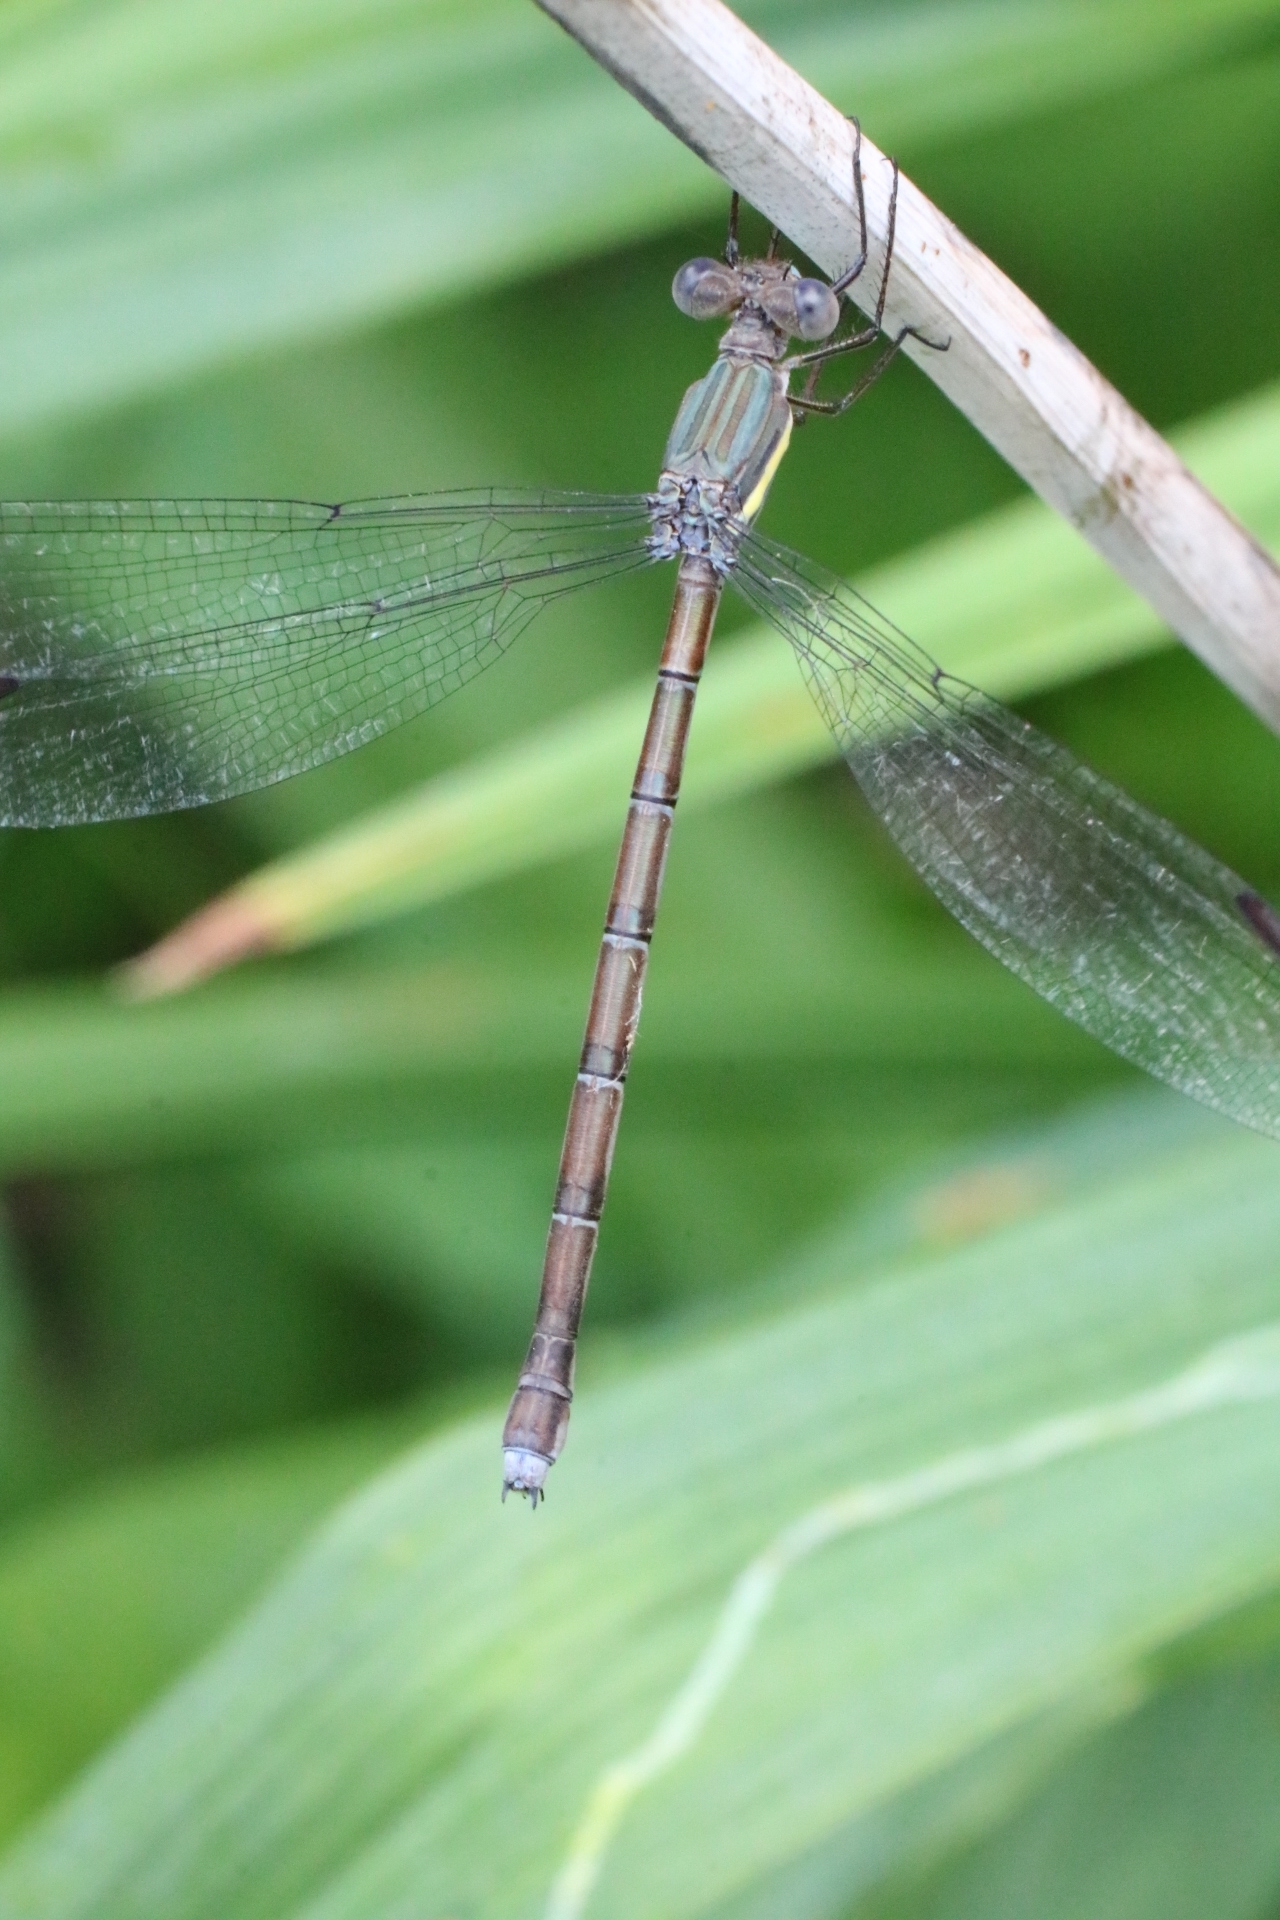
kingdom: Animalia
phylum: Arthropoda
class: Insecta
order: Odonata
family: Lestidae
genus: Archilestes
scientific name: Archilestes grandis
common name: Great spreadwing
